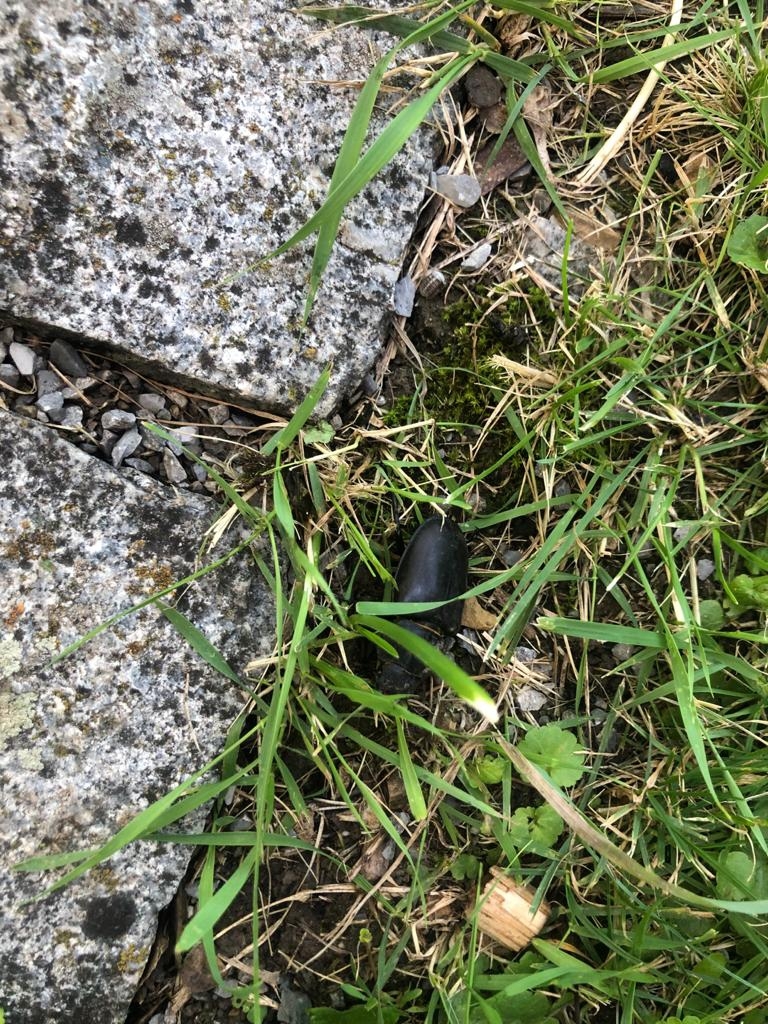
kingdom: Animalia
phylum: Arthropoda
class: Insecta
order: Coleoptera
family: Lucanidae
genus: Lucanus
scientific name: Lucanus cervus
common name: Stag beetle
